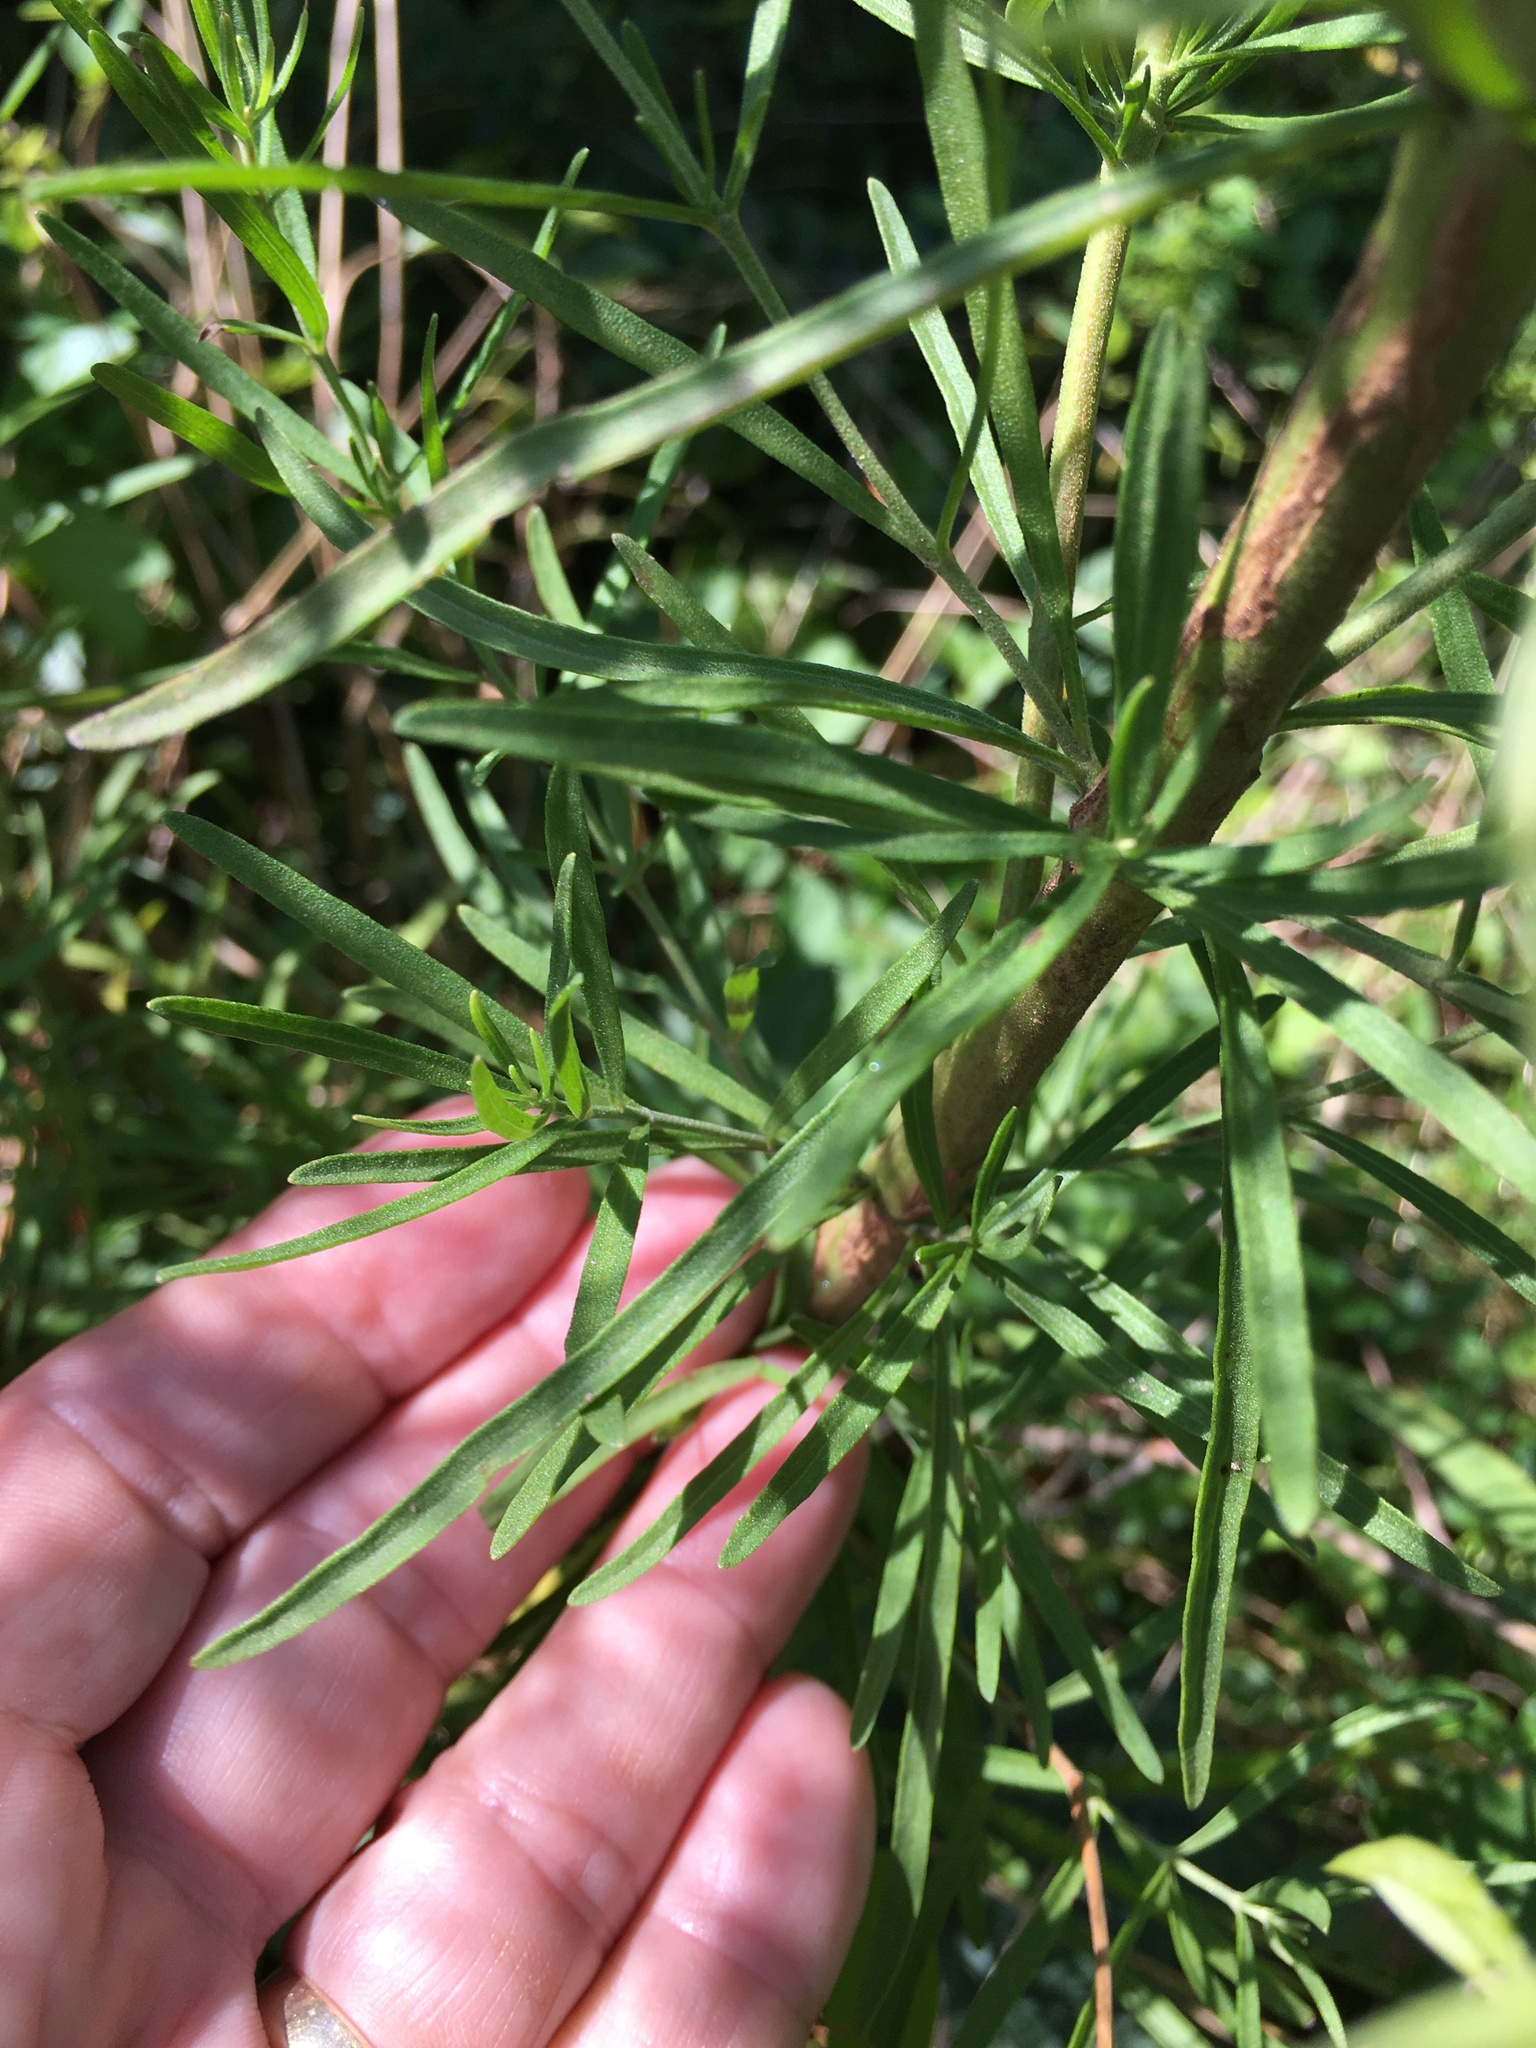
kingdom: Plantae
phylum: Tracheophyta
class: Magnoliopsida
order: Asterales
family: Asteraceae
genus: Eupatorium
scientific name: Eupatorium hyssopifolium
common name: Hyssop-leaf thoroughwort
